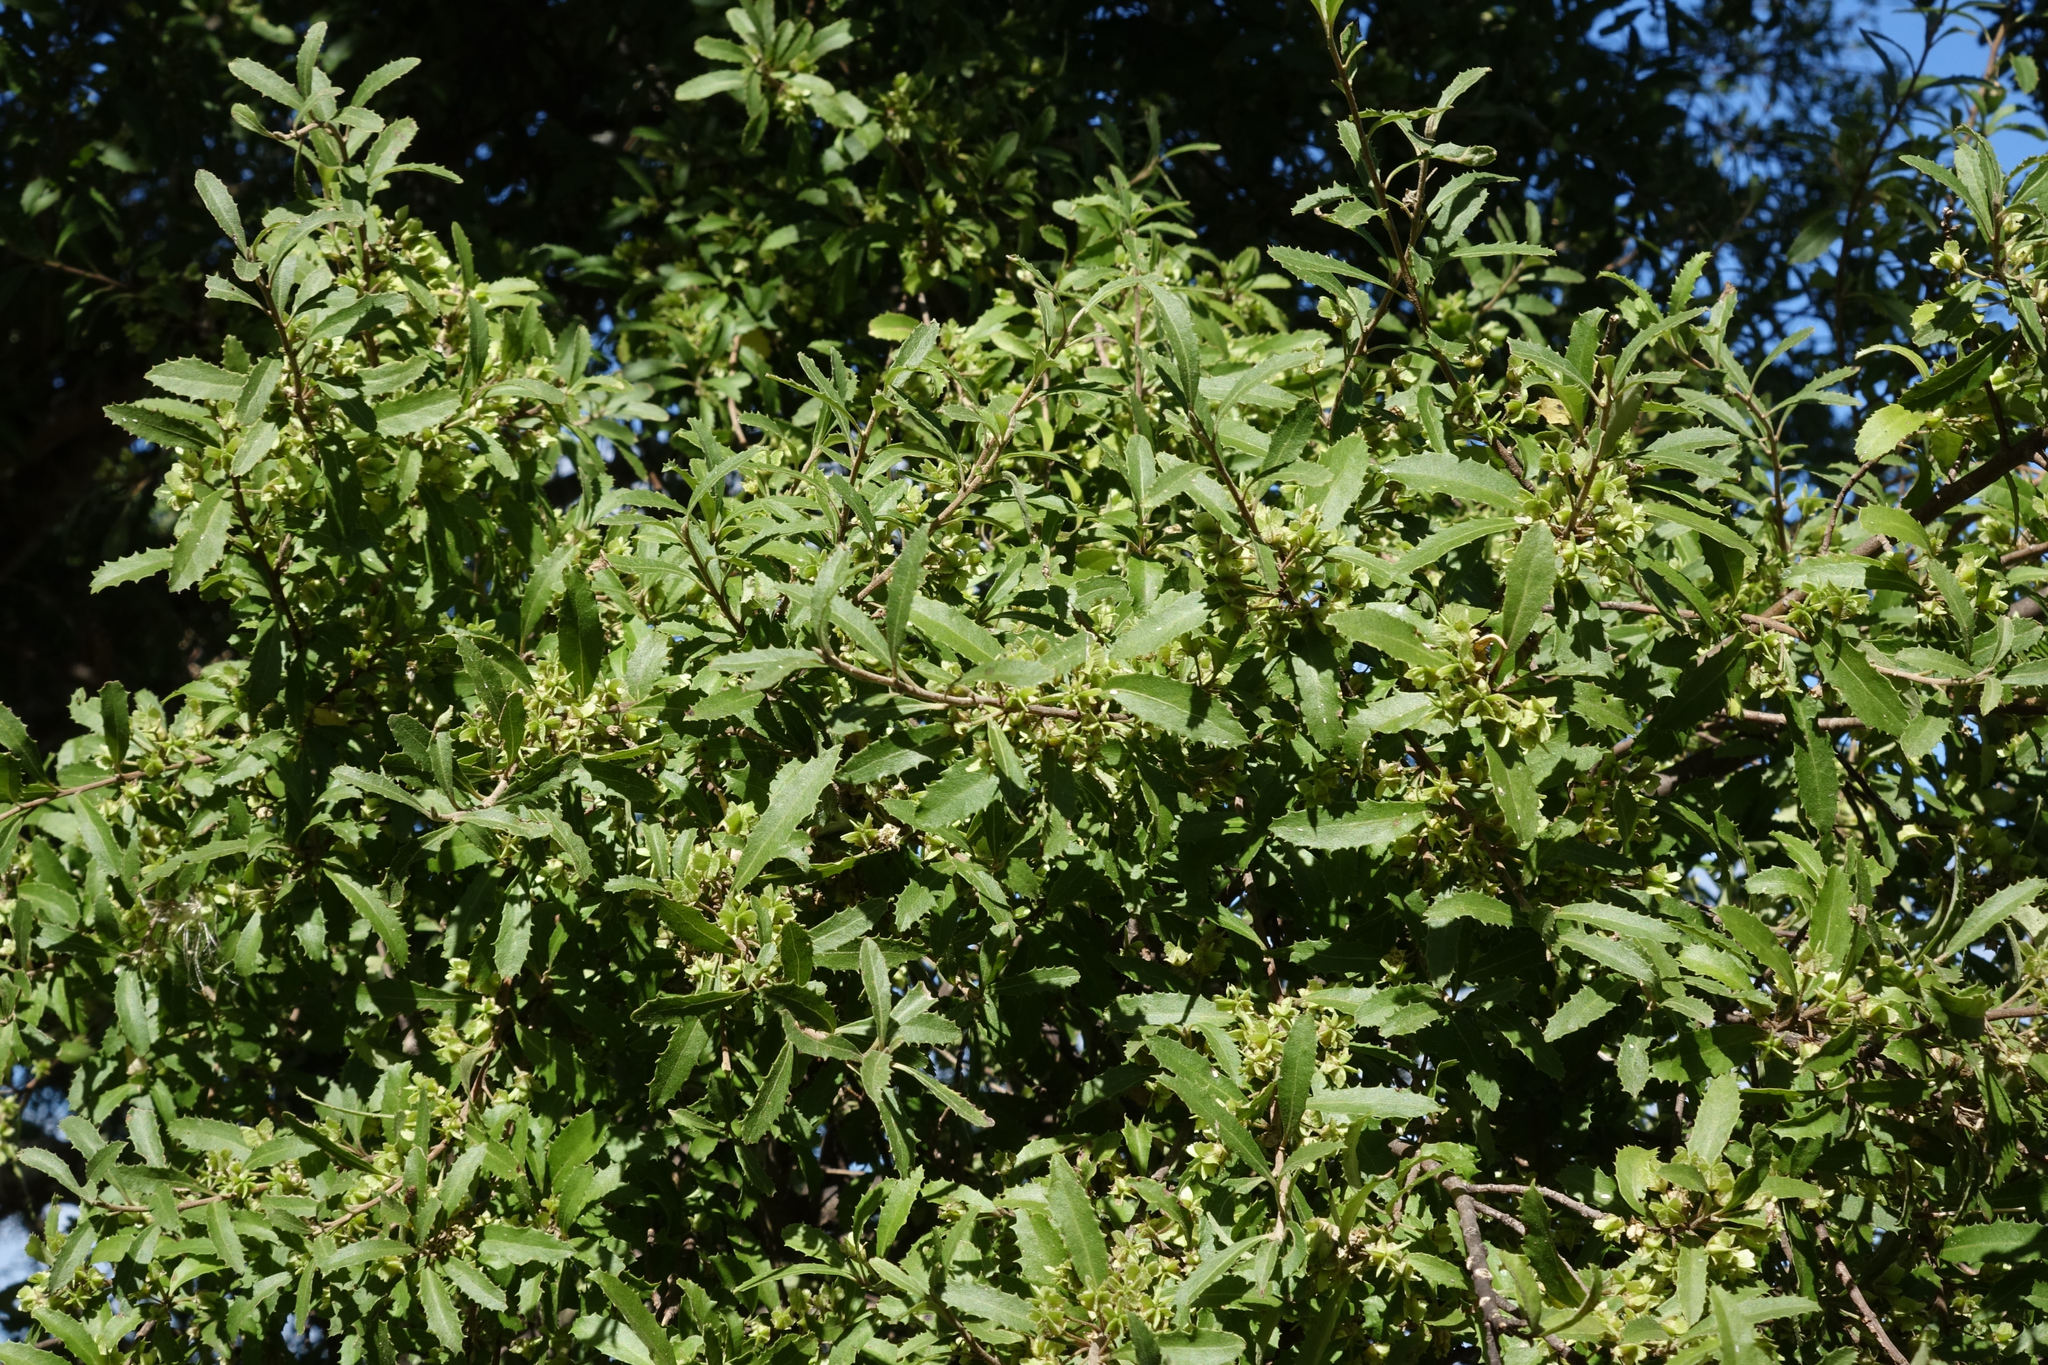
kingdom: Plantae
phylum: Tracheophyta
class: Magnoliopsida
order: Malvales
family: Malvaceae
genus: Hoheria
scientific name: Hoheria angustifolia
